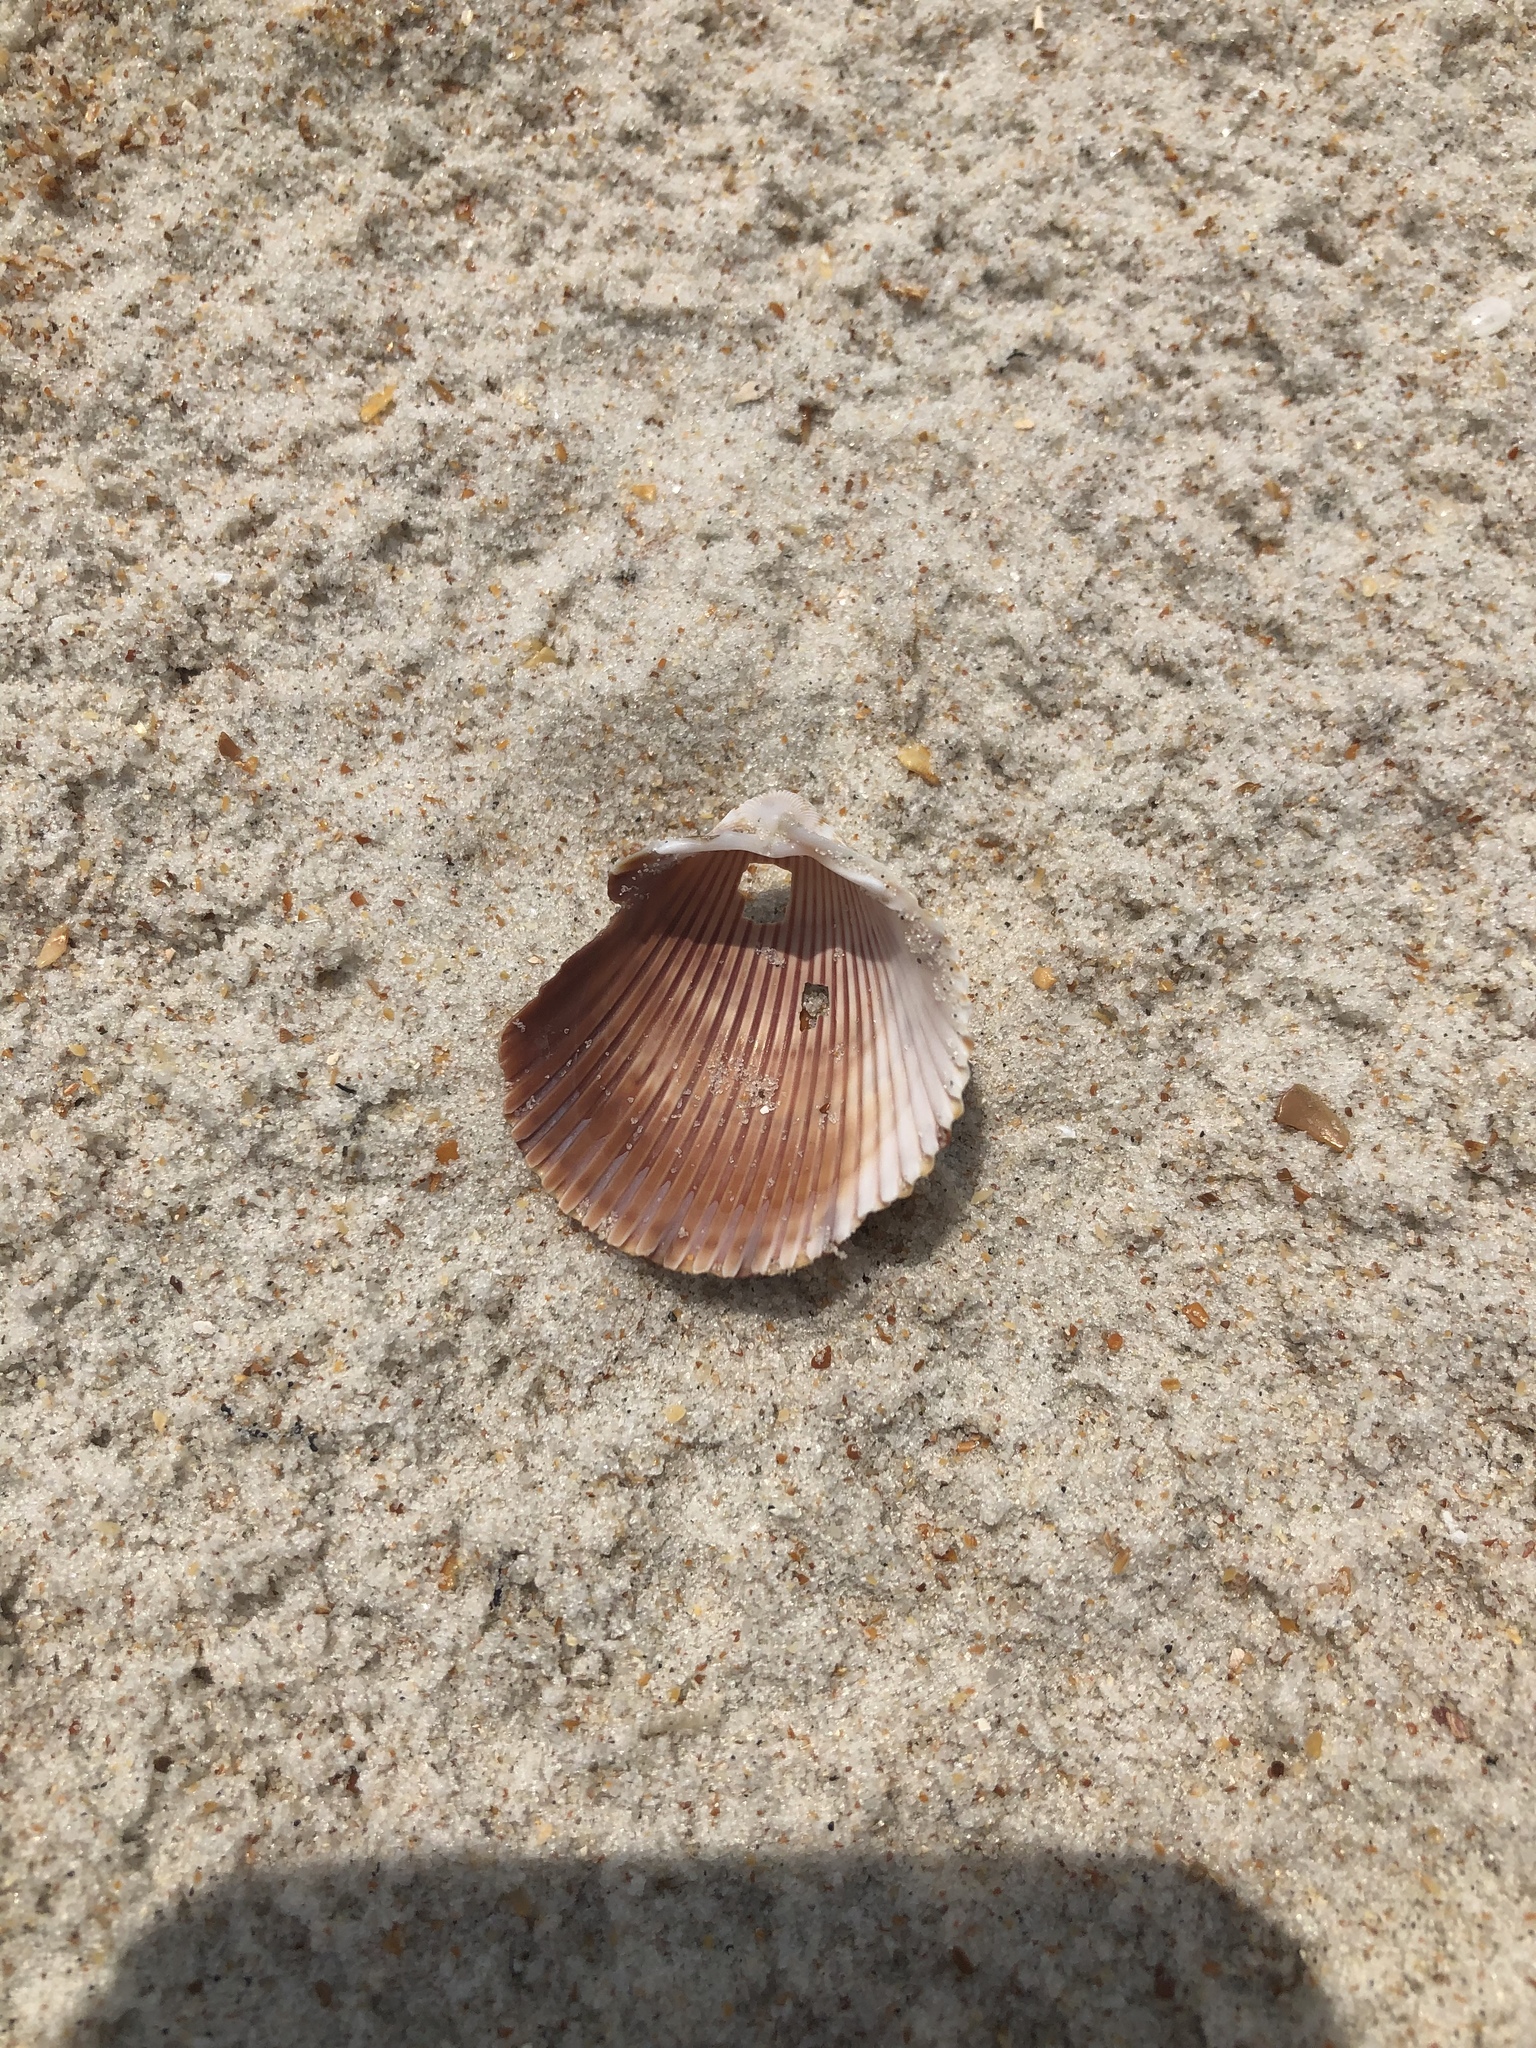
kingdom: Animalia
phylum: Mollusca
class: Bivalvia
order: Cardiida
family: Cardiidae
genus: Dinocardium
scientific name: Dinocardium robustum
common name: Atlantic giant cockle
